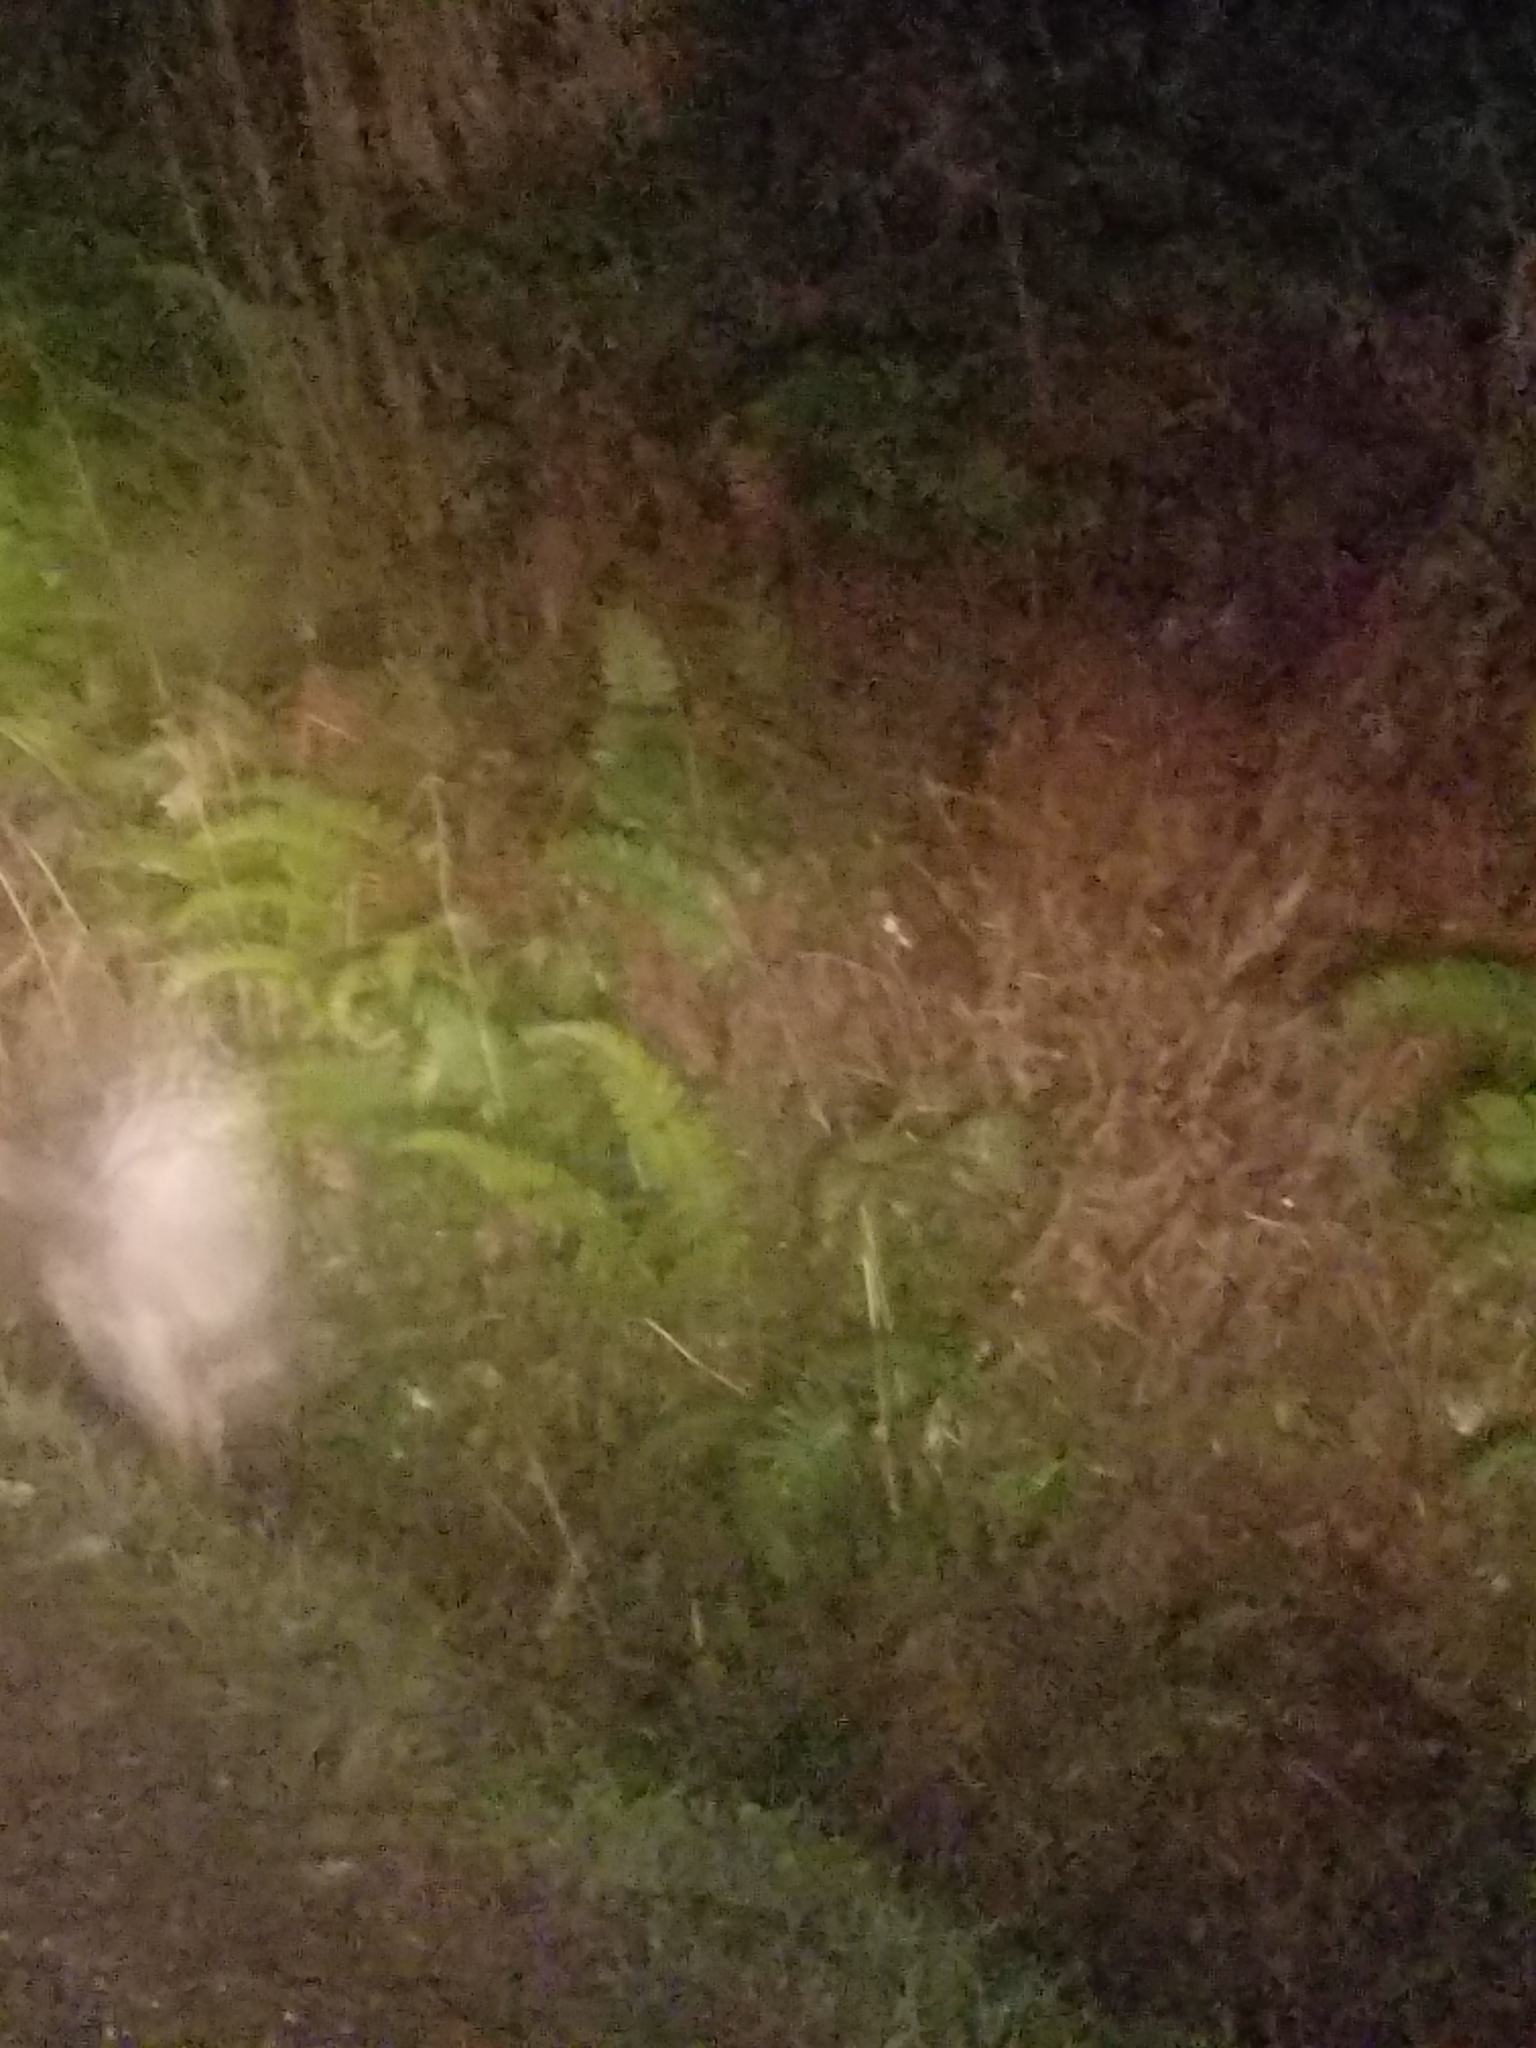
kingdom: Animalia
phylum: Chordata
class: Aves
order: Strigiformes
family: Strigidae
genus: Strix
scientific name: Strix varia
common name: Barred owl
